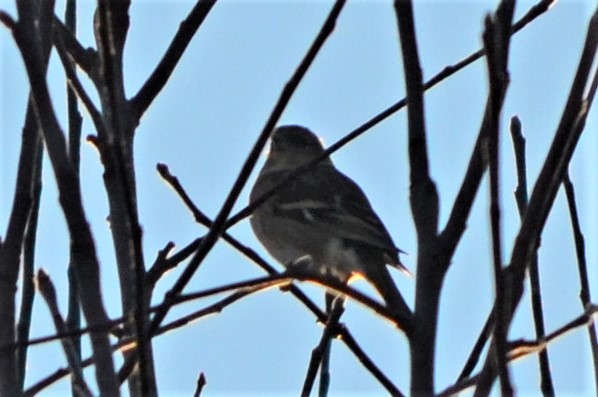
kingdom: Animalia
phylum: Chordata
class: Aves
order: Passeriformes
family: Fringillidae
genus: Fringilla
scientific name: Fringilla coelebs
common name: Common chaffinch
